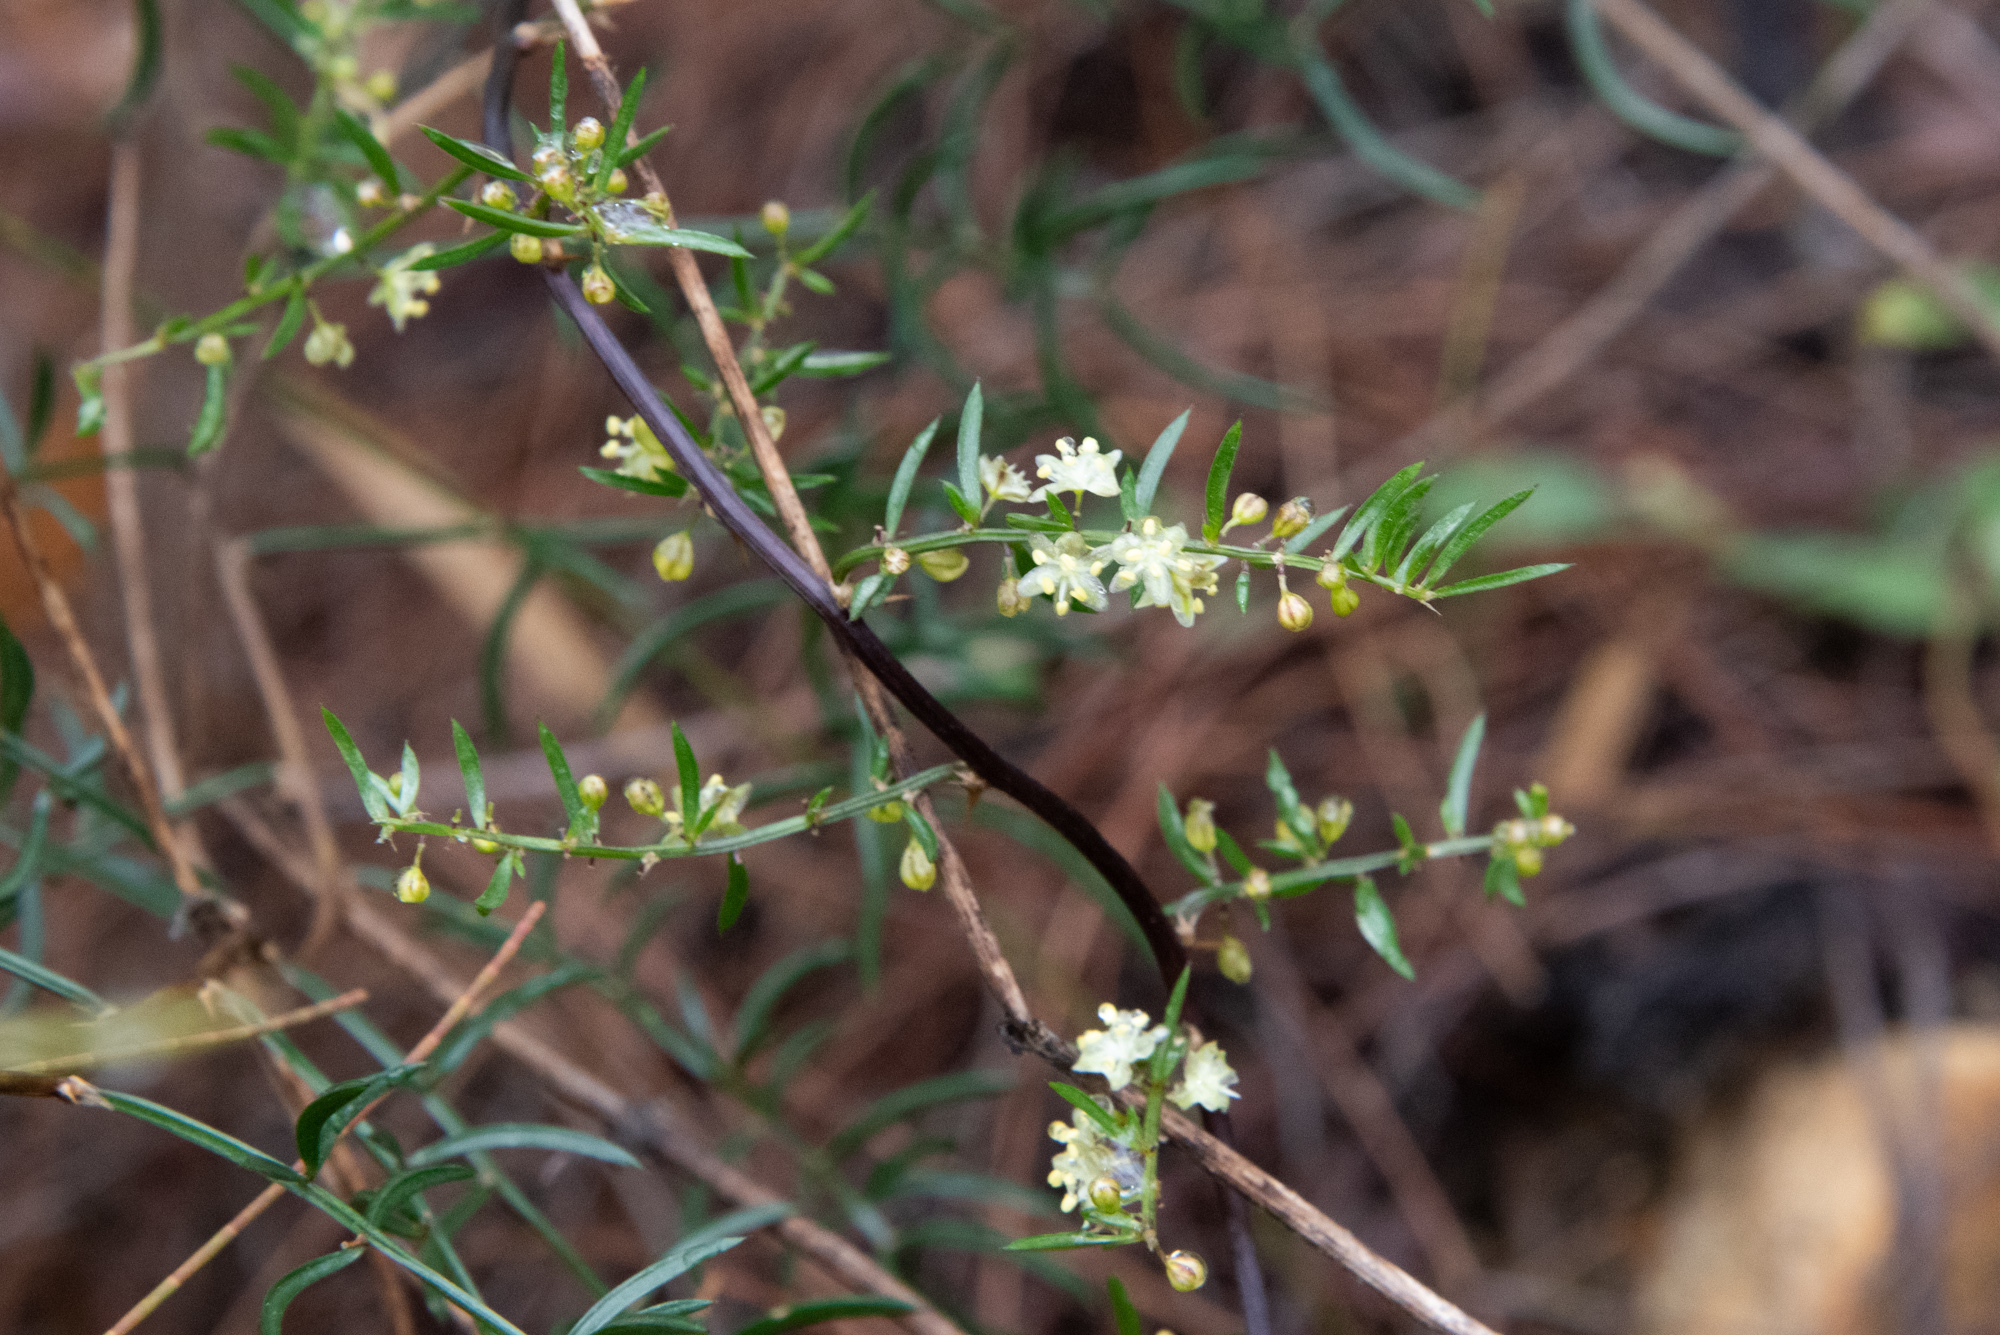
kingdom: Plantae
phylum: Tracheophyta
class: Liliopsida
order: Asparagales
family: Asparagaceae
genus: Asparagus
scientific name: Asparagus cochinchinensis
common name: Chinese asparagus
